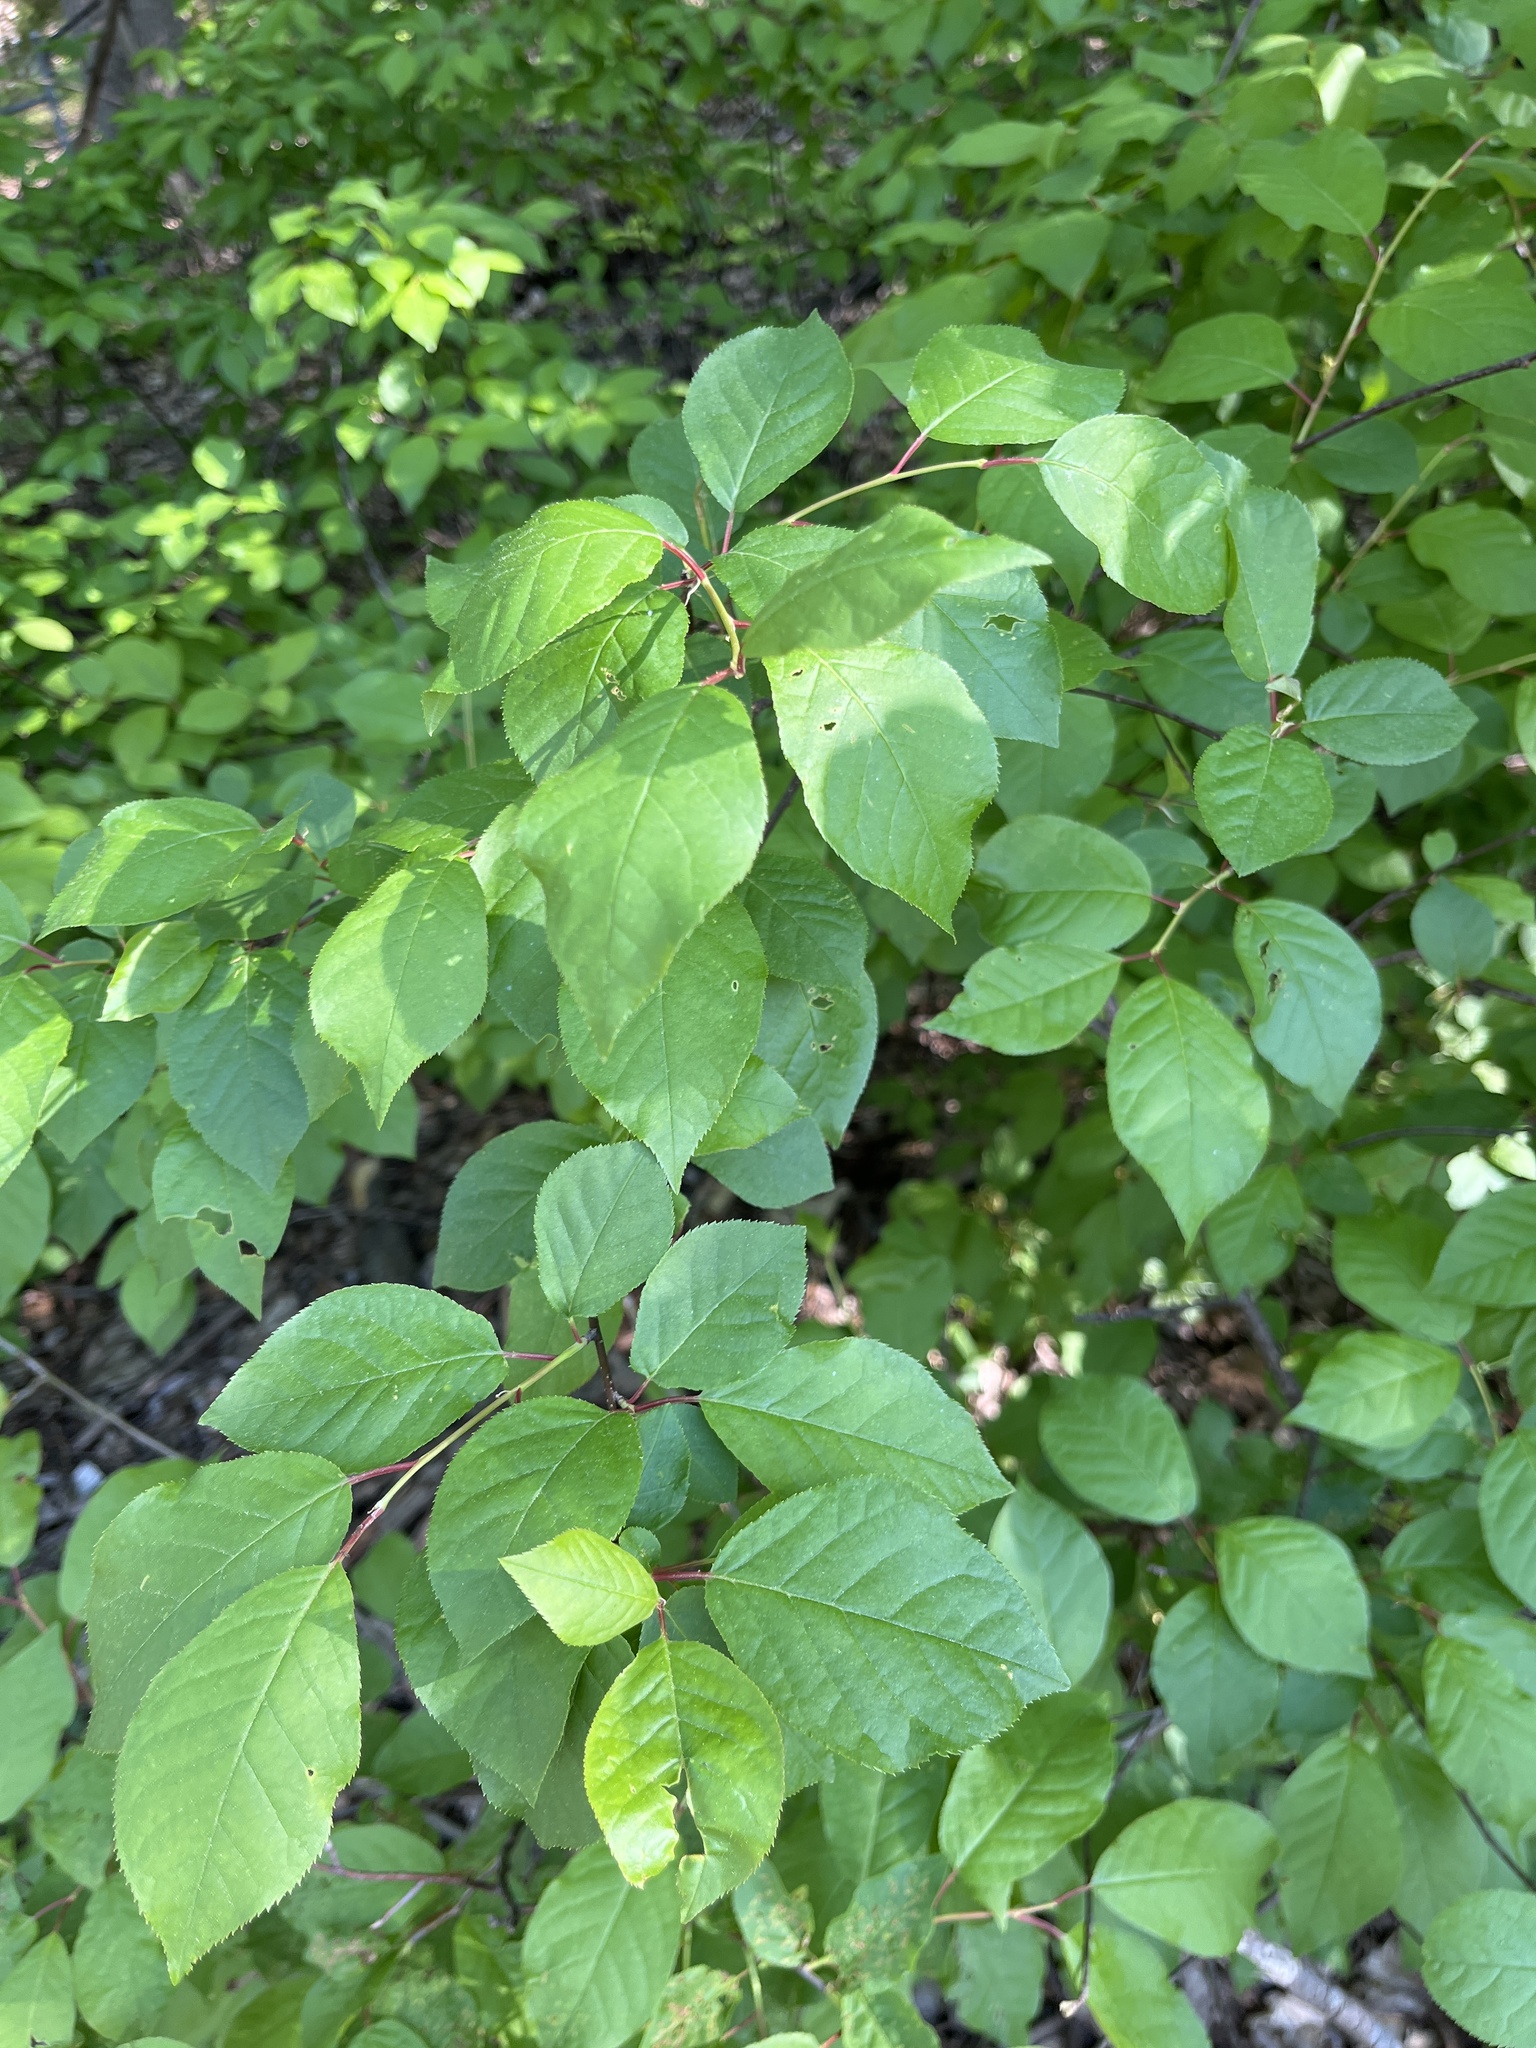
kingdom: Plantae
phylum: Tracheophyta
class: Magnoliopsida
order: Rosales
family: Rosaceae
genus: Prunus
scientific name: Prunus virginiana
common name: Chokecherry
